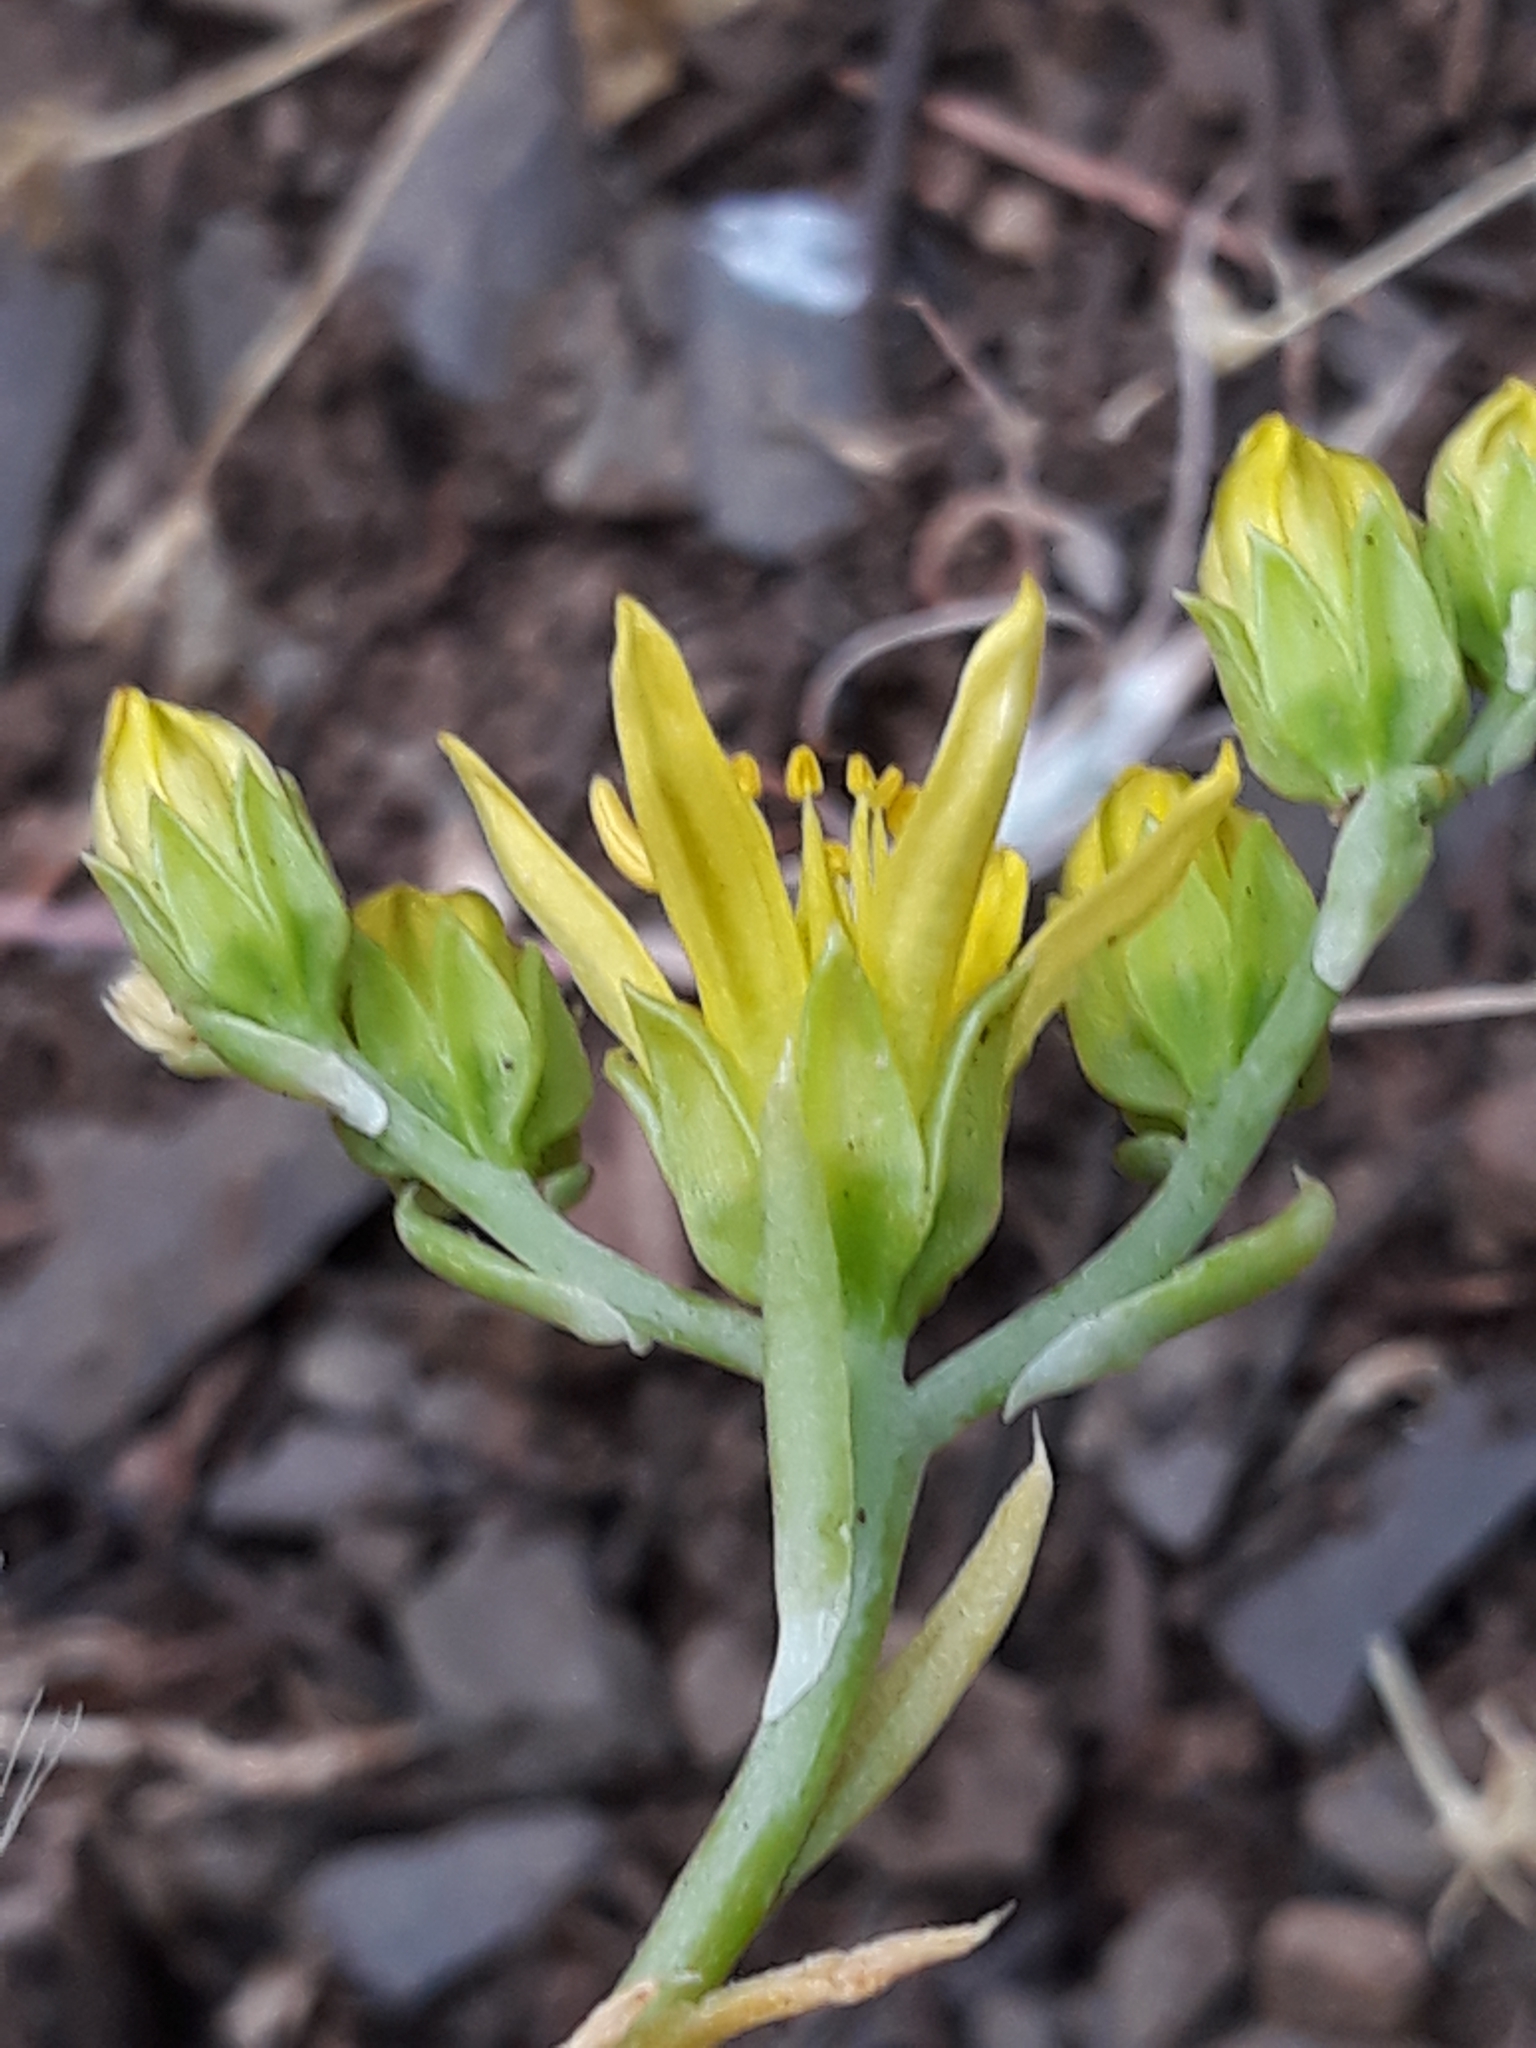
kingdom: Plantae
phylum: Tracheophyta
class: Magnoliopsida
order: Saxifragales
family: Crassulaceae
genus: Petrosedum
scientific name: Petrosedum amplexicaule
